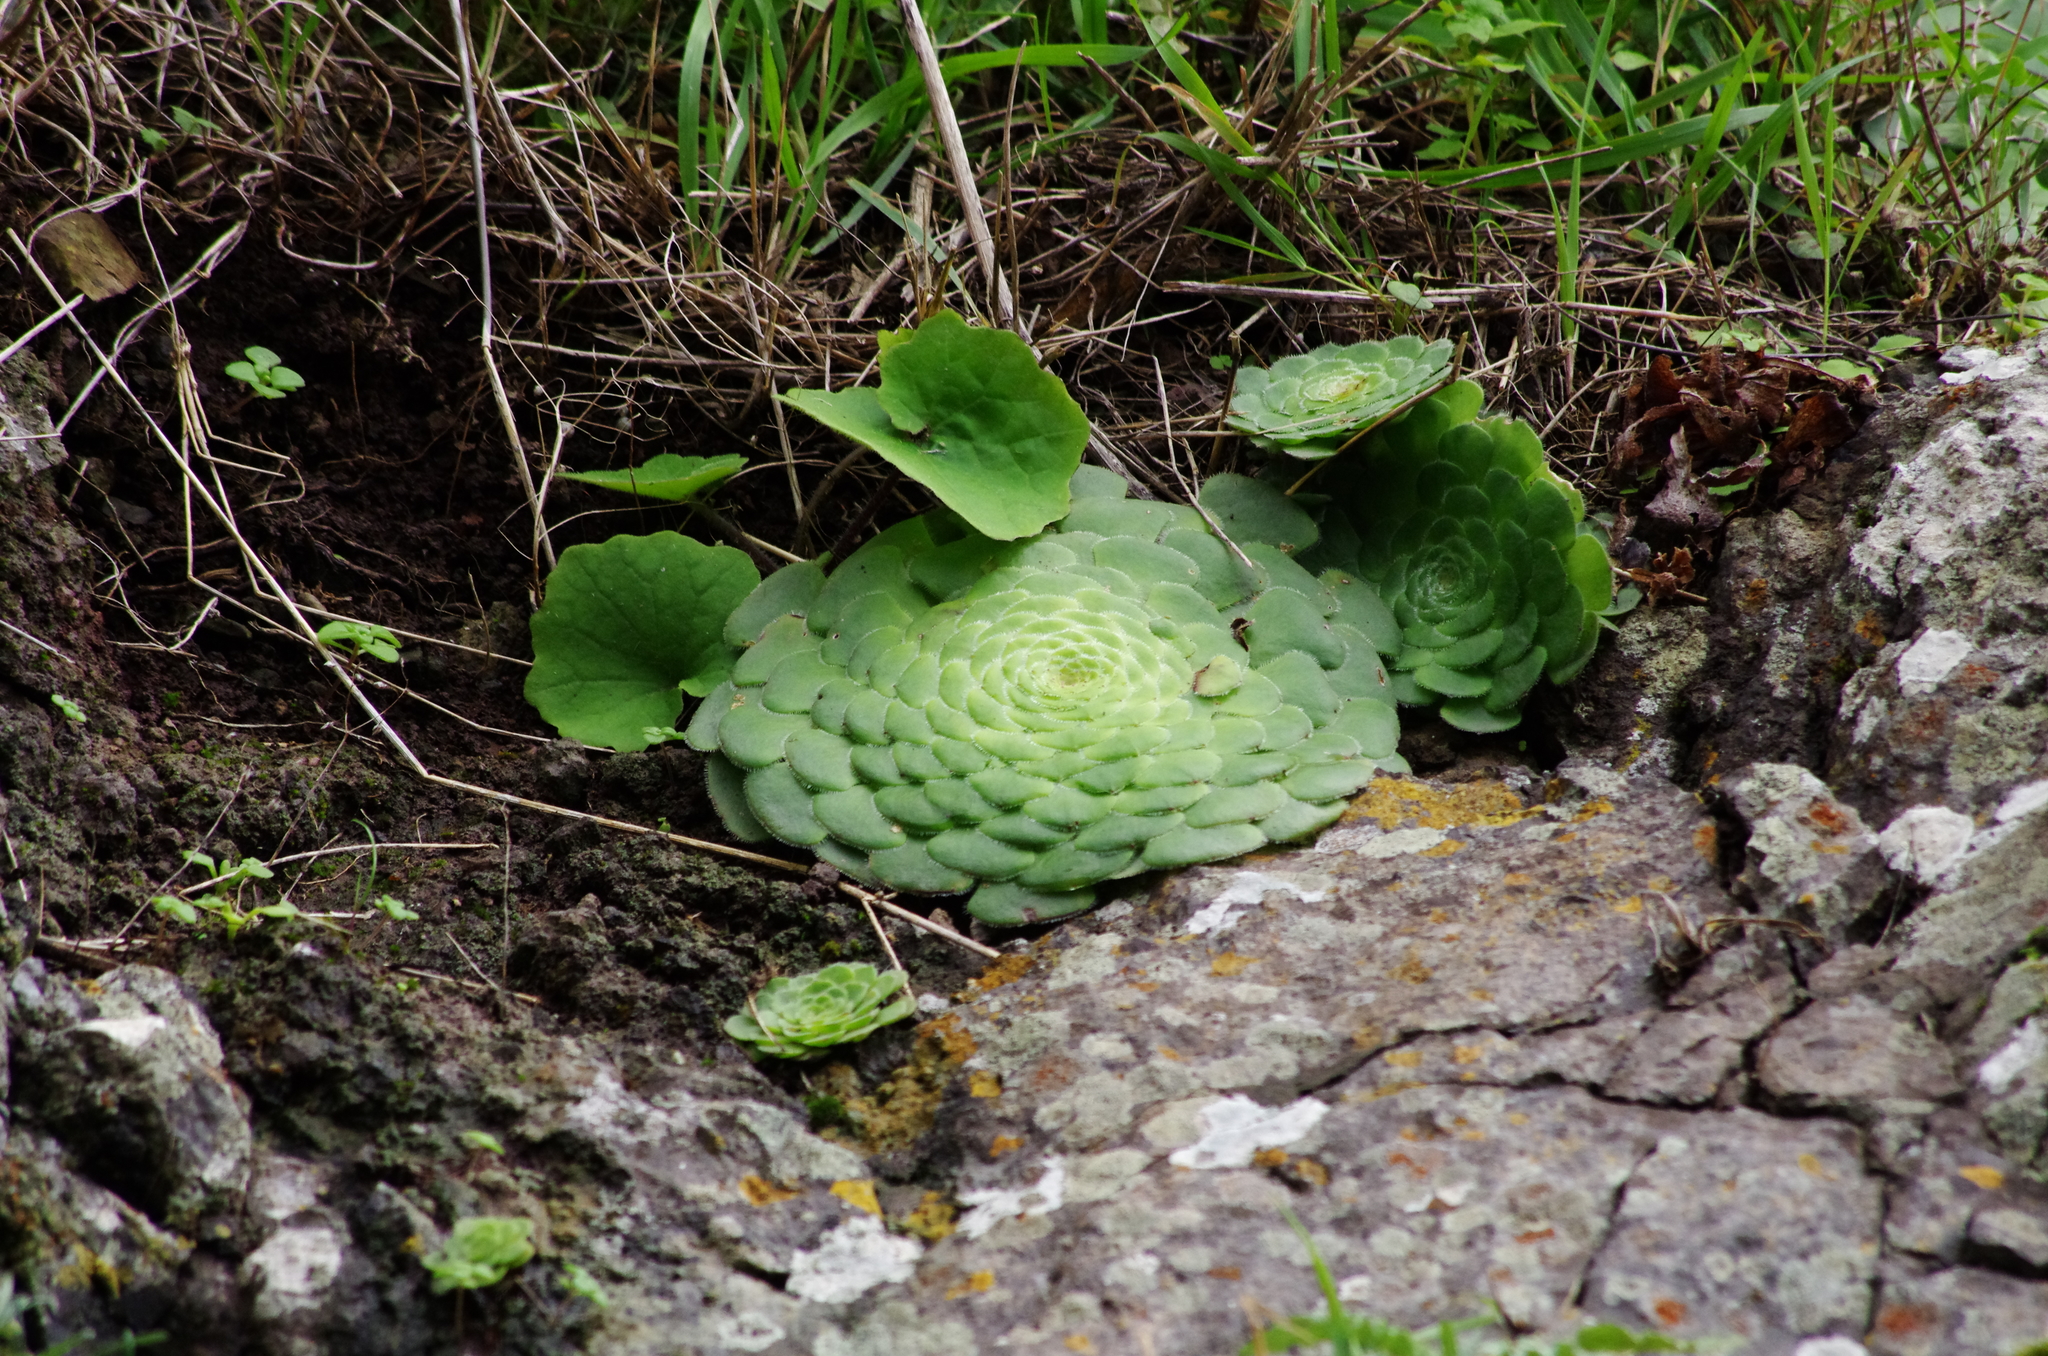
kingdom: Plantae
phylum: Tracheophyta
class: Magnoliopsida
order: Saxifragales
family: Crassulaceae
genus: Aeonium
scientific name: Aeonium tabulaeforme
